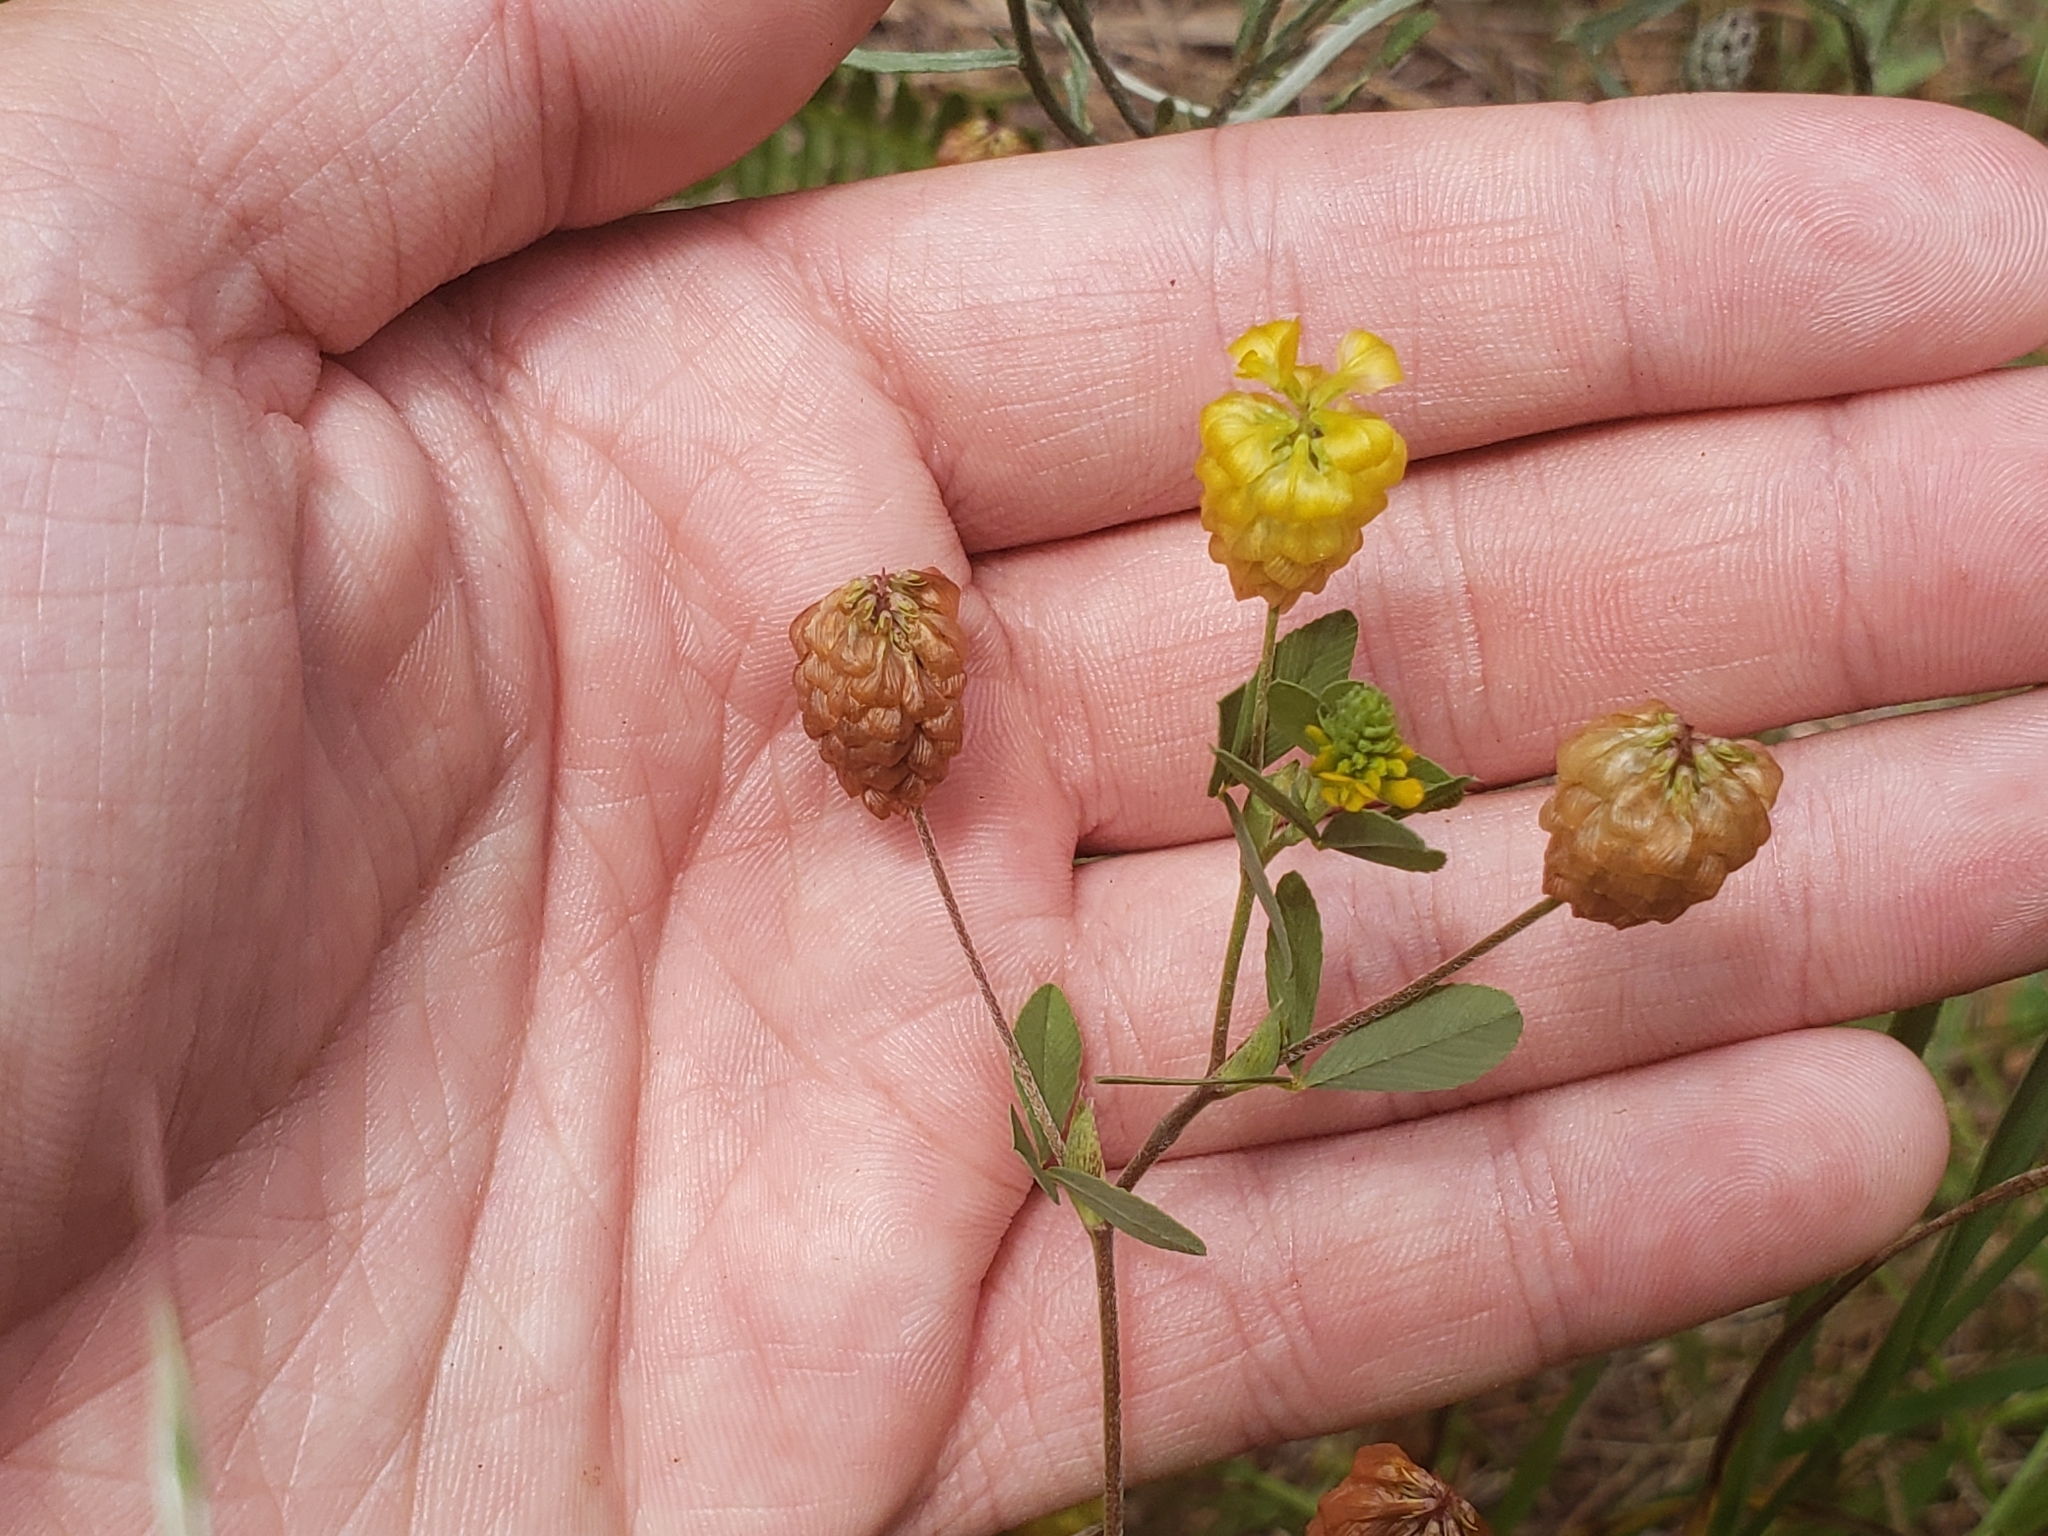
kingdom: Plantae
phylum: Tracheophyta
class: Magnoliopsida
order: Fabales
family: Fabaceae
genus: Trifolium
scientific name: Trifolium aureum
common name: Golden clover
